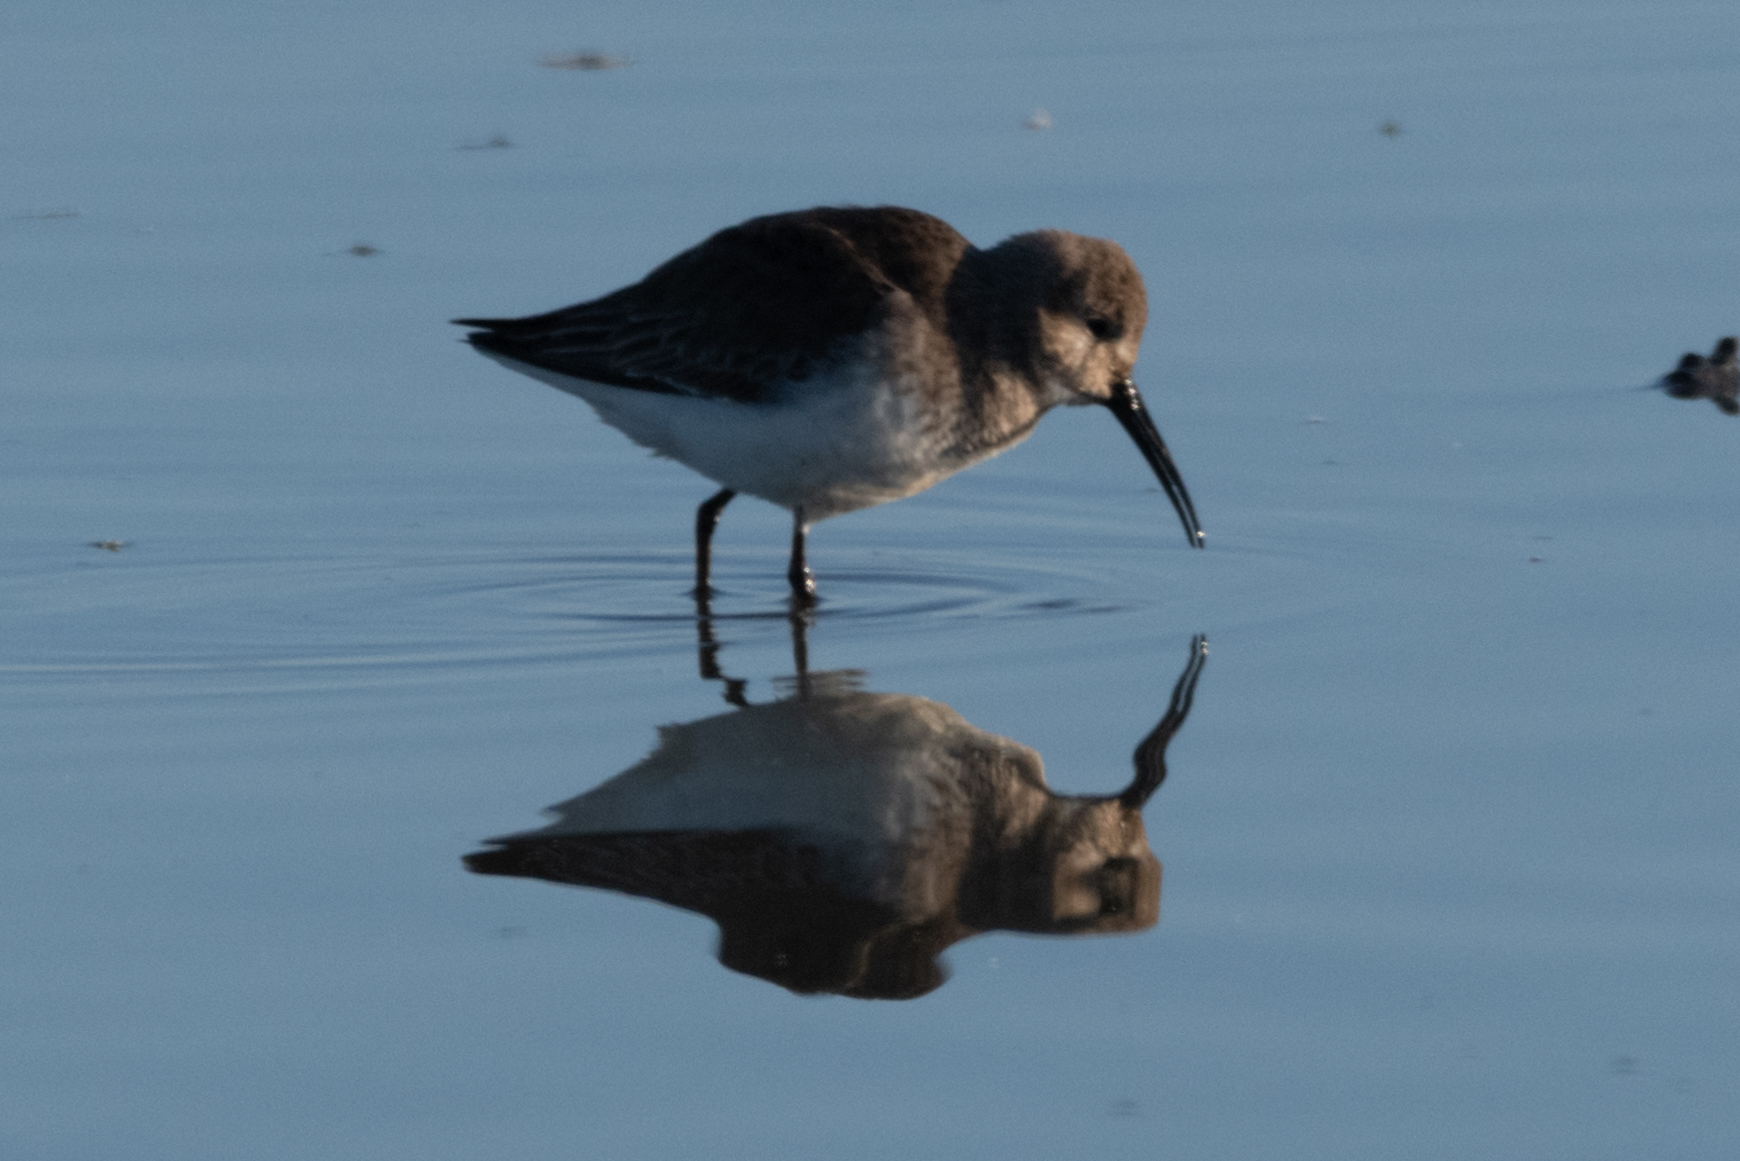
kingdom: Animalia
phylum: Chordata
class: Aves
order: Charadriiformes
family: Scolopacidae
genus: Calidris
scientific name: Calidris alpina
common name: Dunlin
